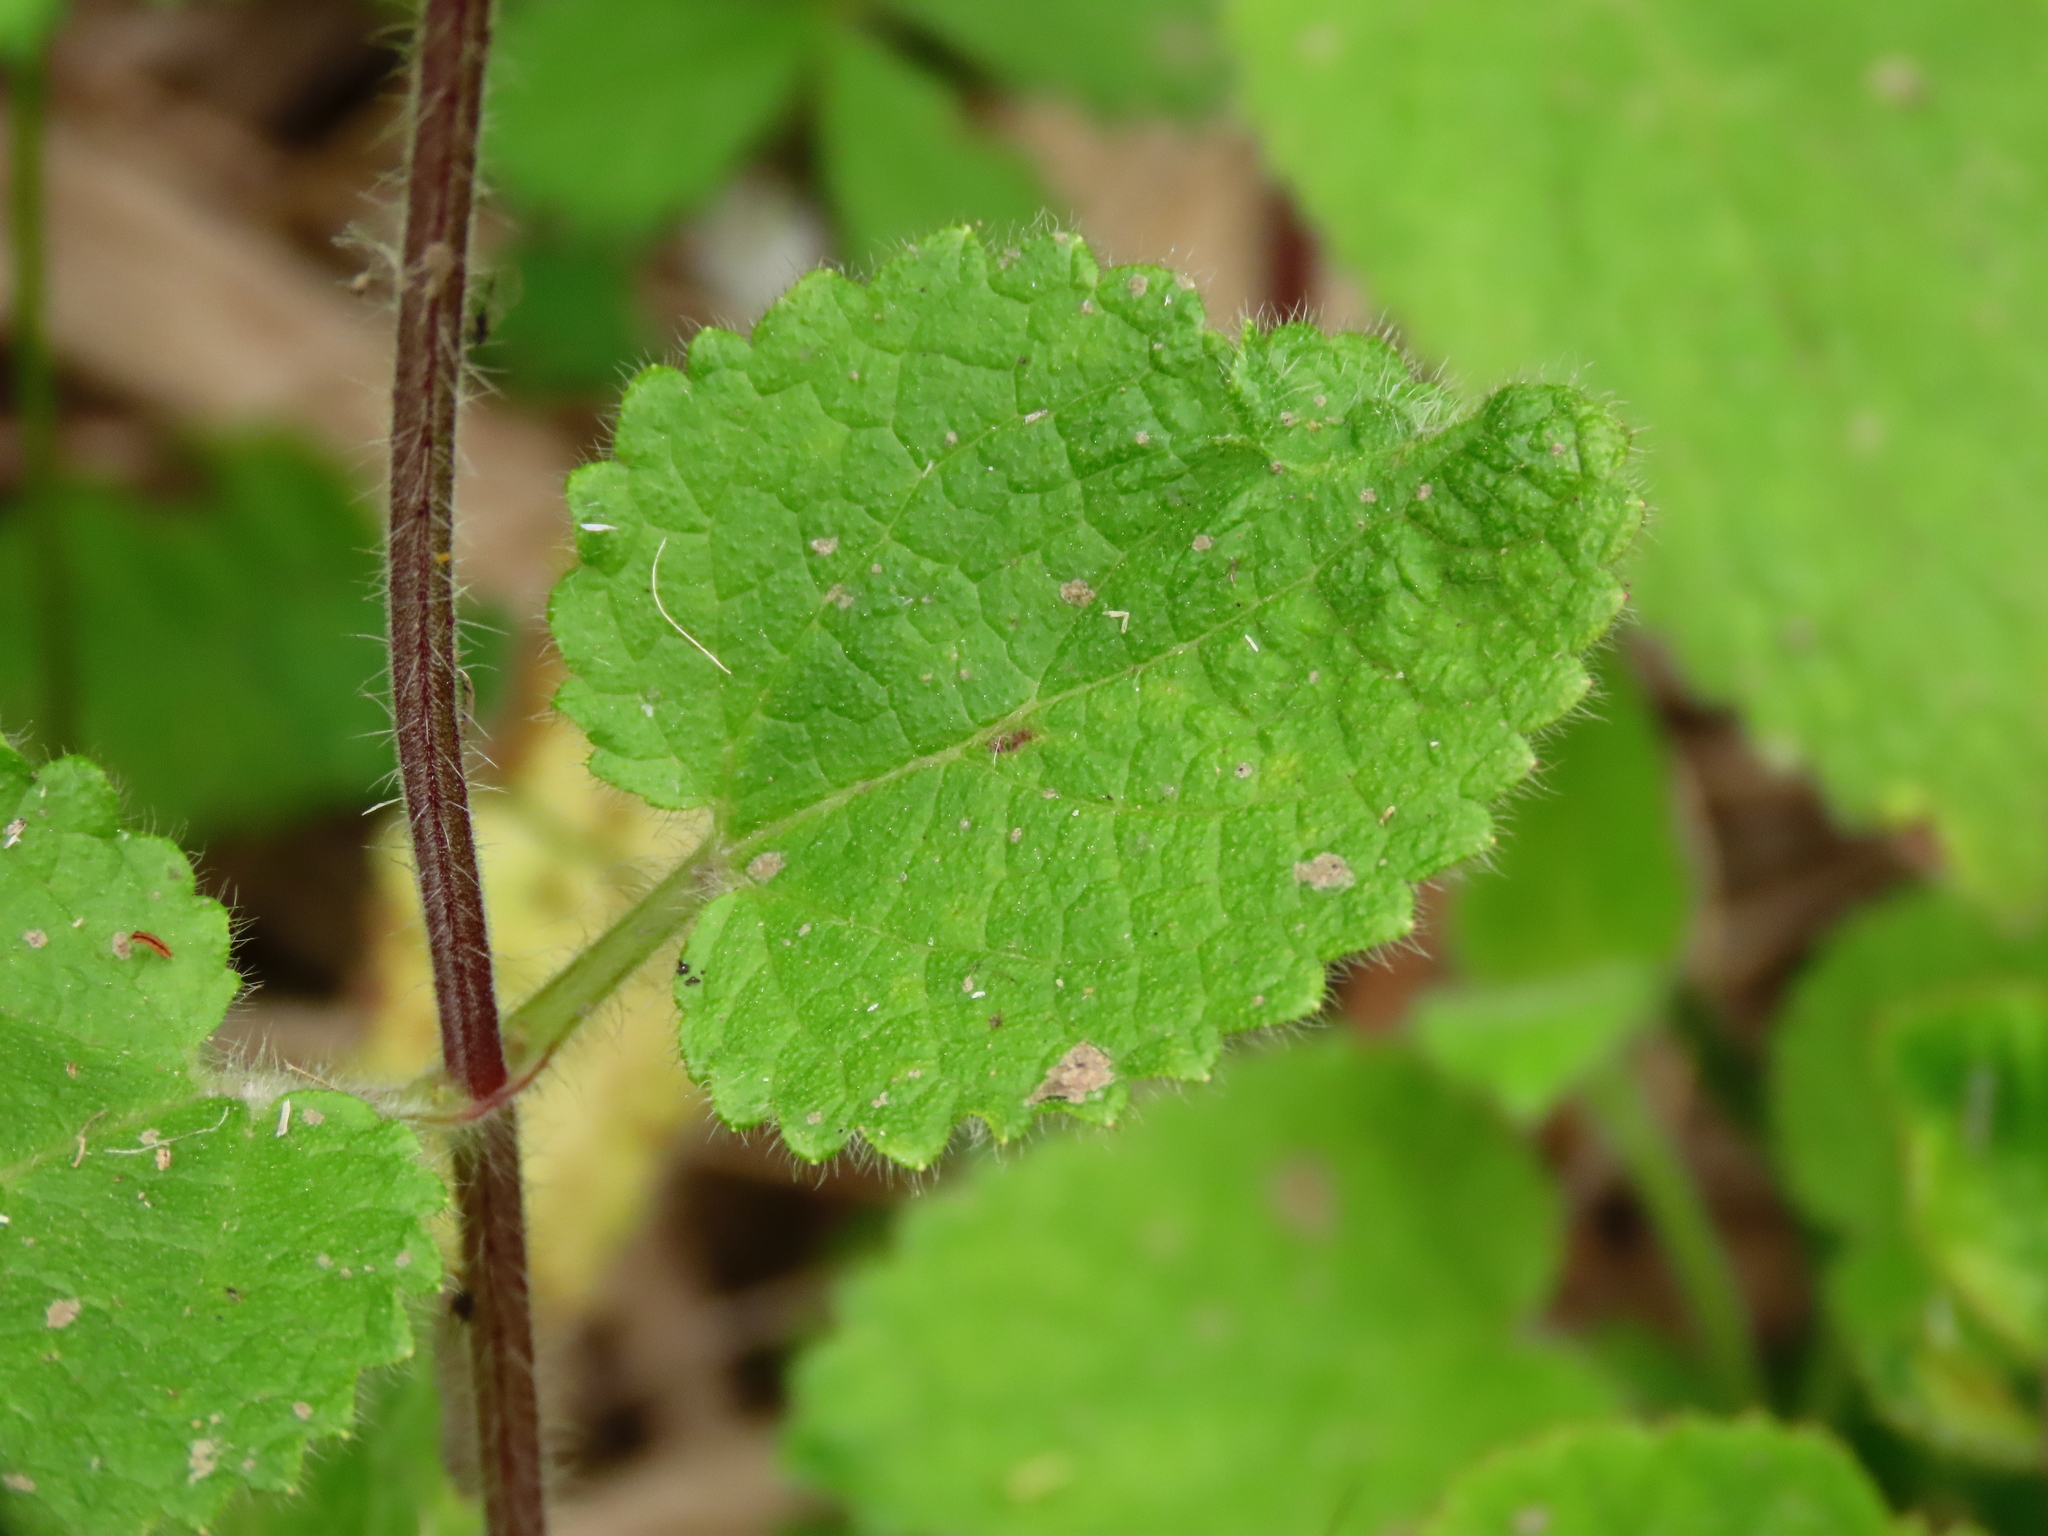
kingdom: Plantae
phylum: Tracheophyta
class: Magnoliopsida
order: Lamiales
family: Lamiaceae
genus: Stachys
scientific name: Stachys sylvatica
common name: Hedge woundwort
